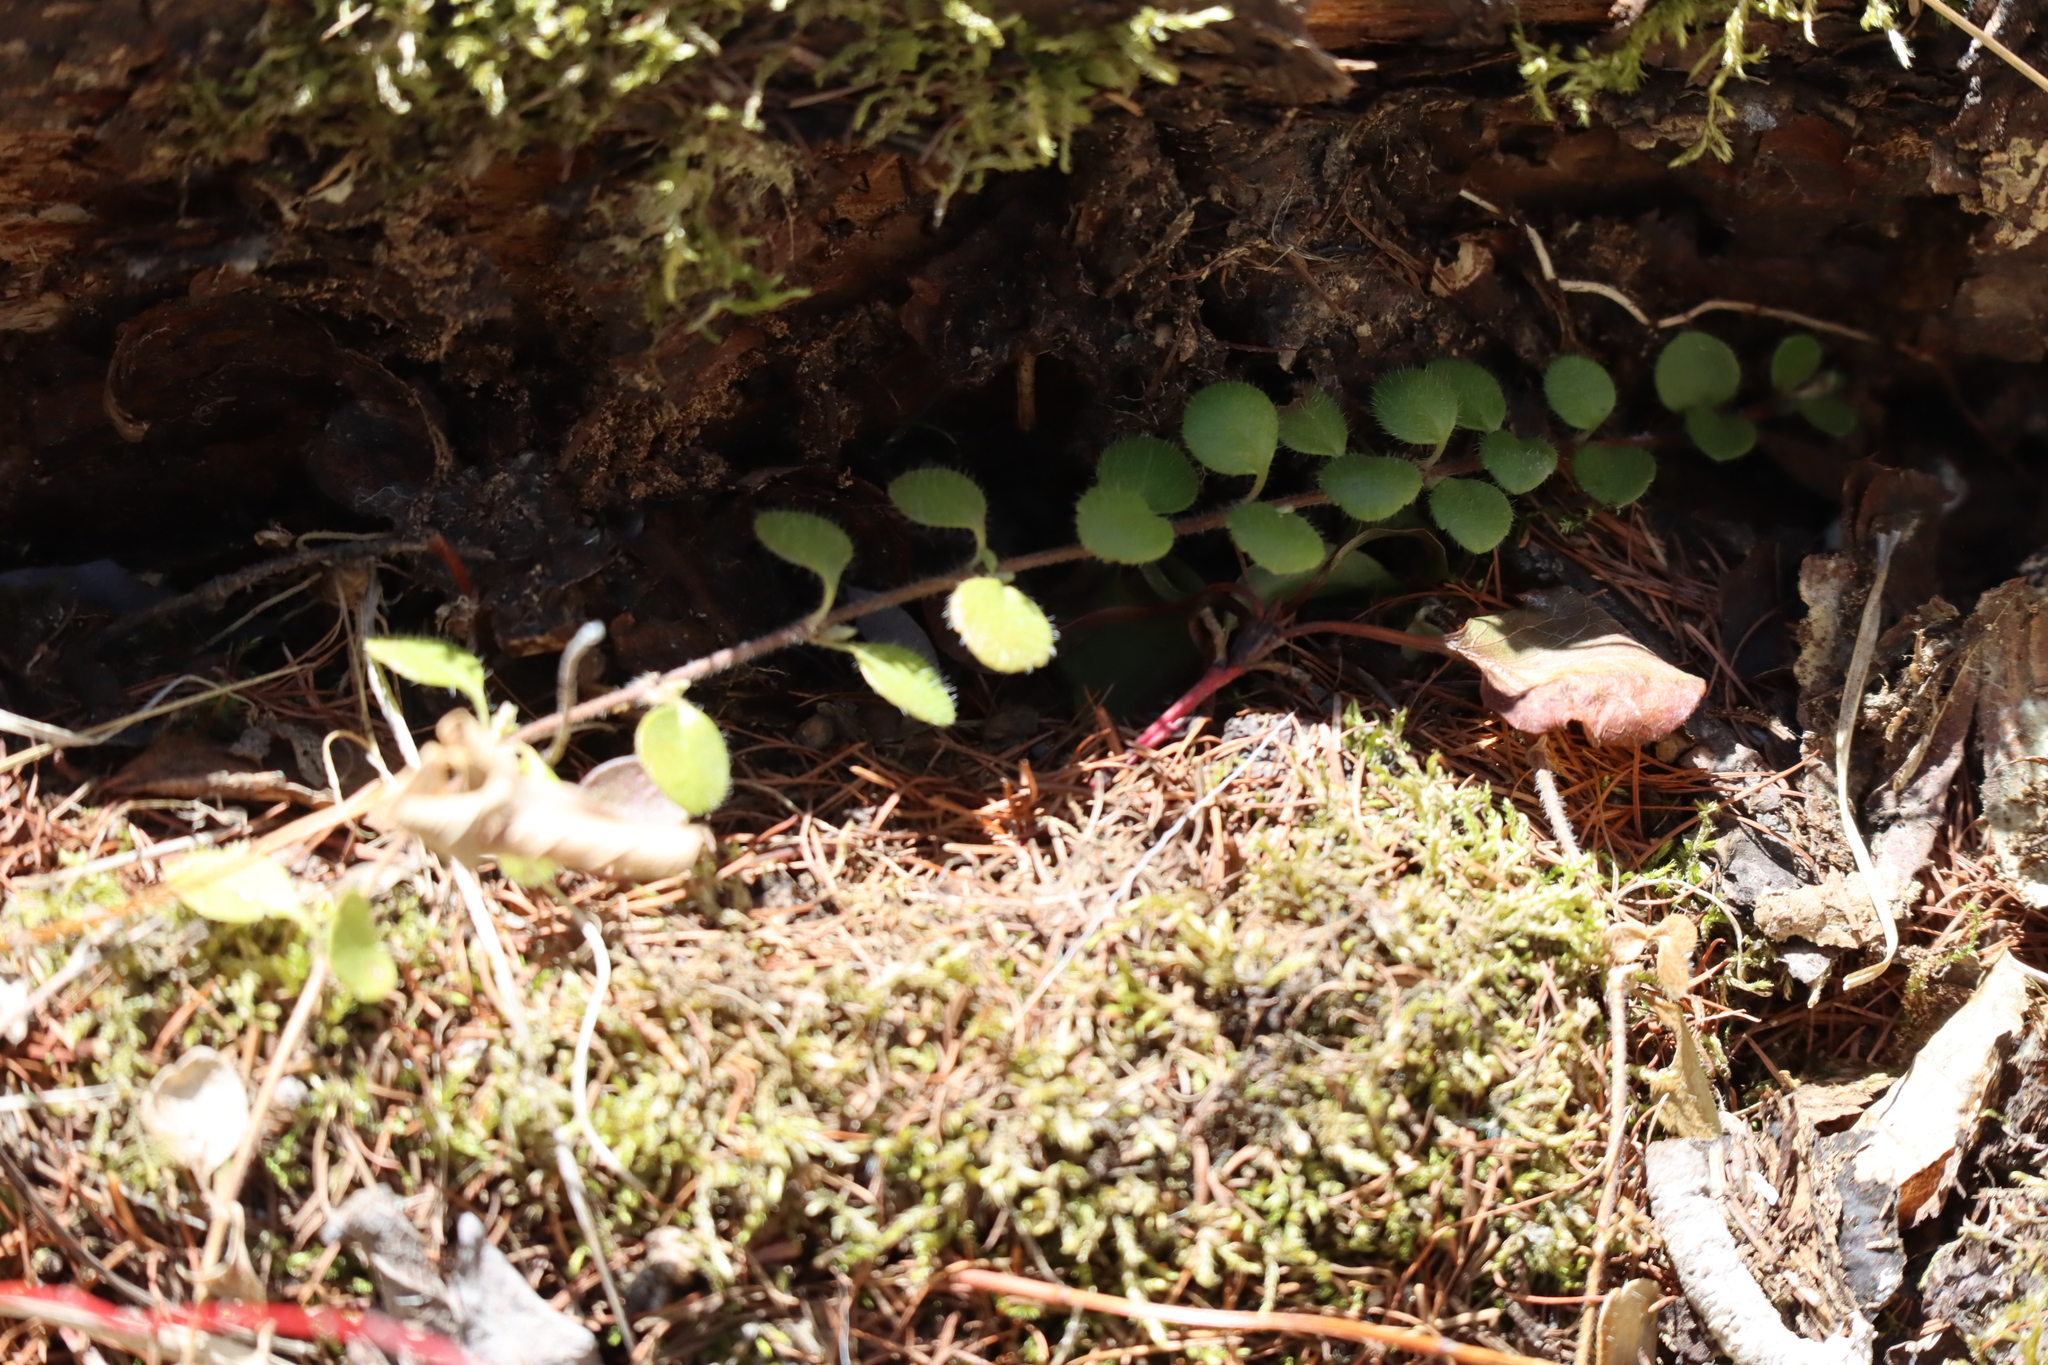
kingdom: Plantae
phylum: Tracheophyta
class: Magnoliopsida
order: Ericales
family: Ericaceae
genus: Gaultheria
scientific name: Gaultheria hispidula
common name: Cancer wintergreen
